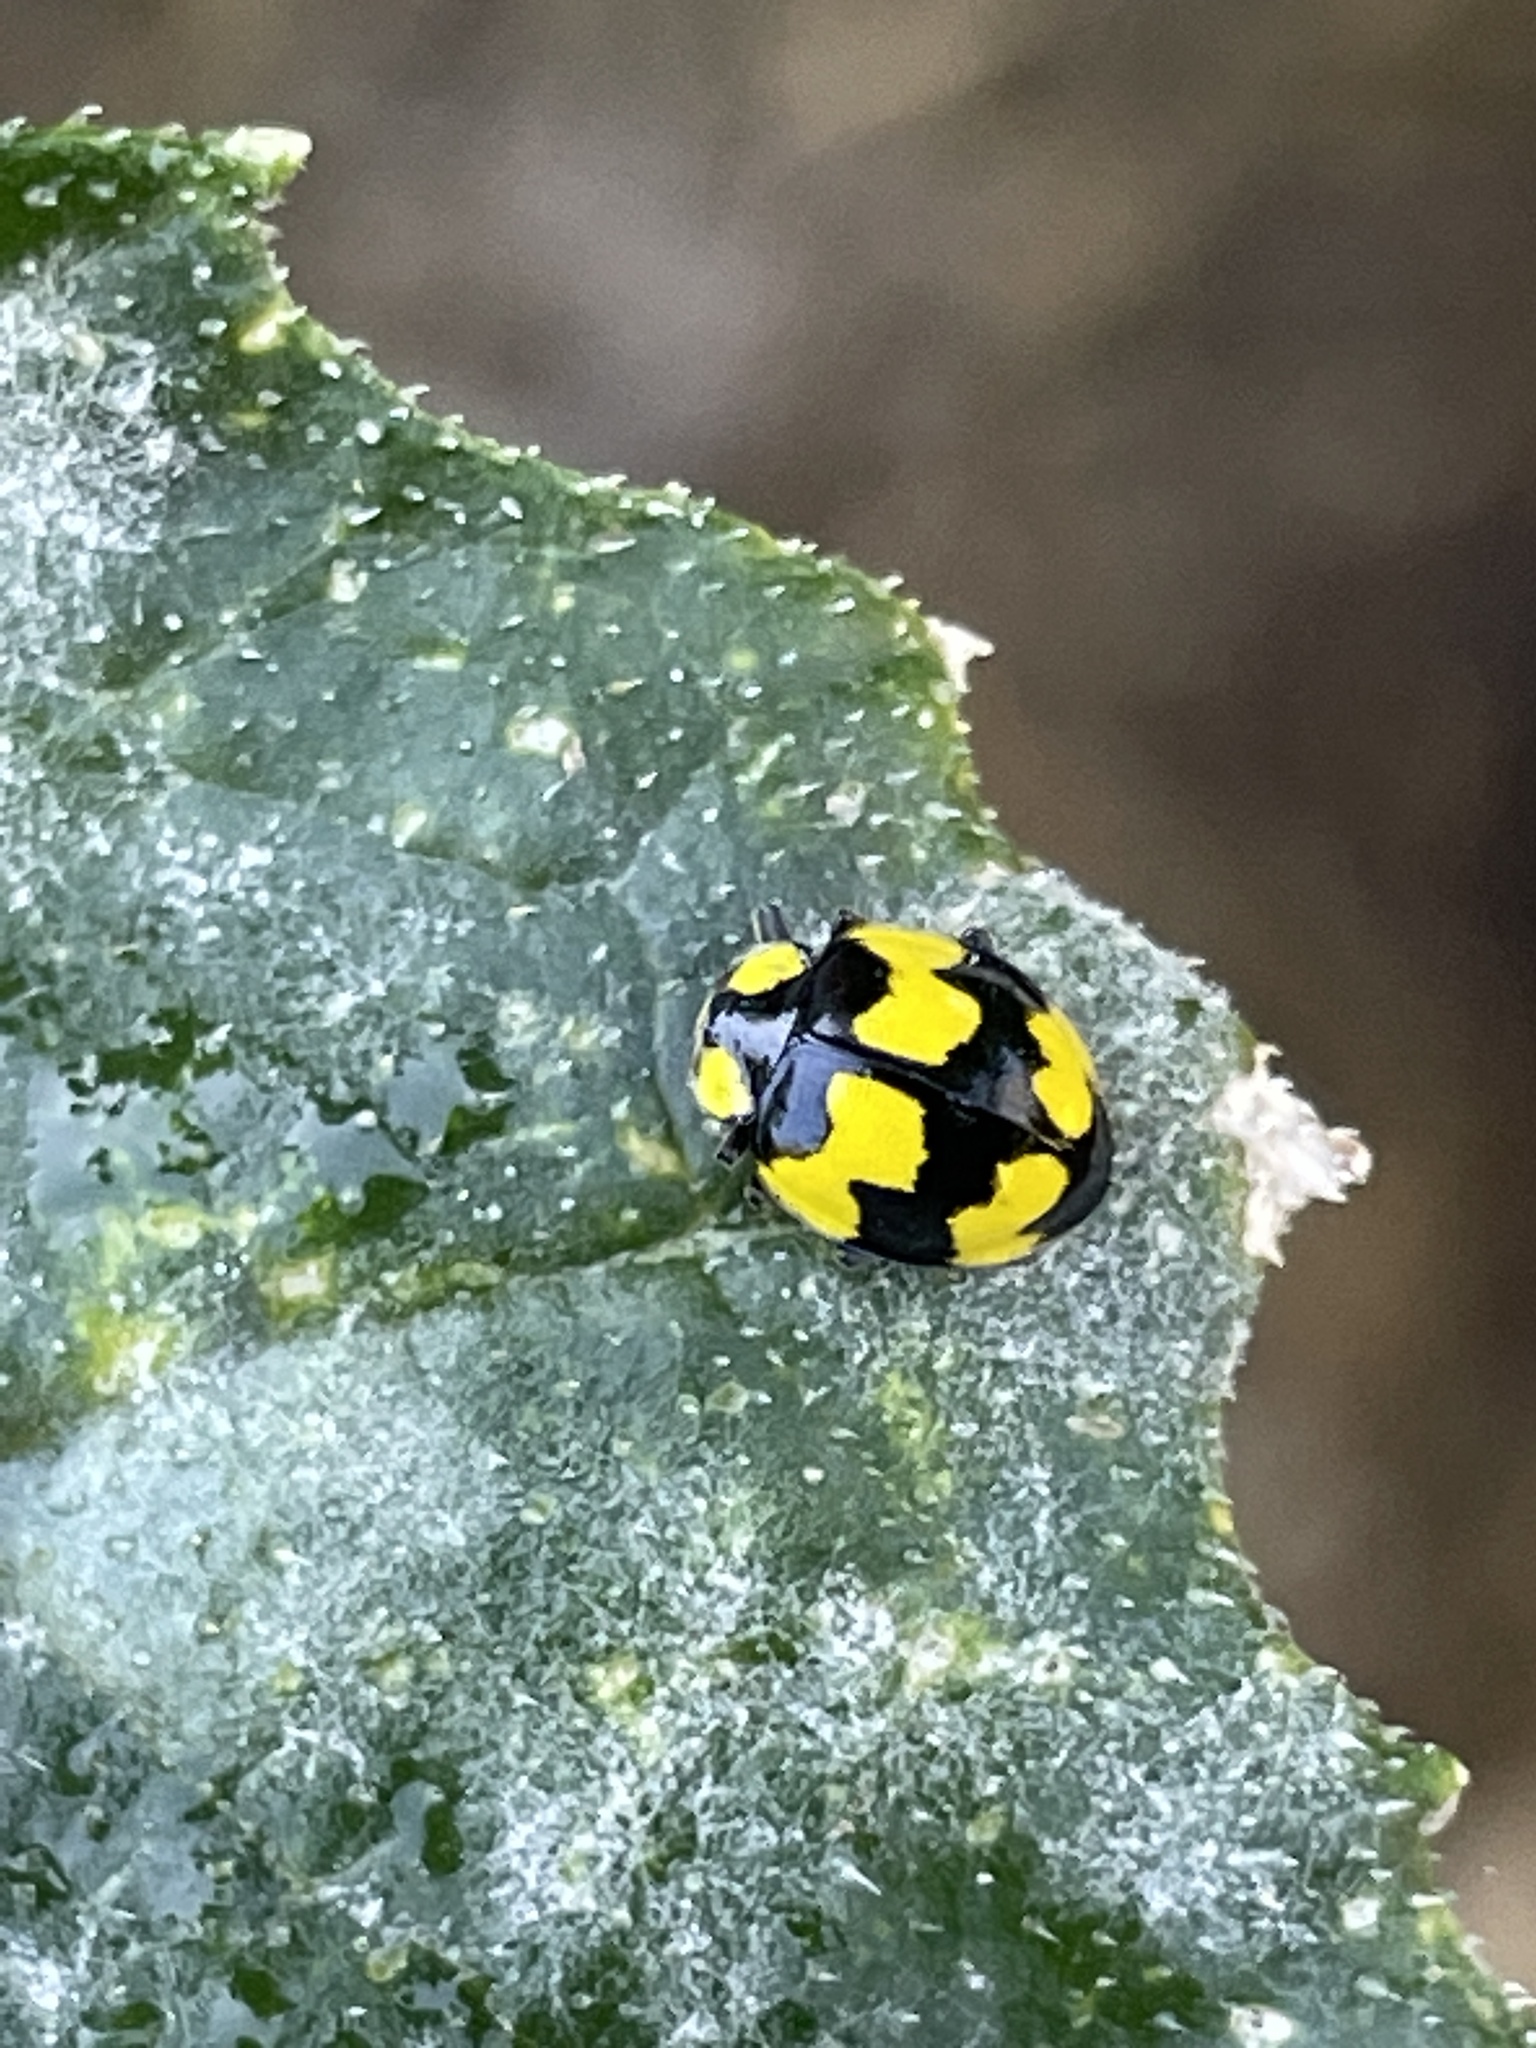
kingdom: Animalia
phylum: Arthropoda
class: Insecta
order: Coleoptera
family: Coccinellidae
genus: Illeis
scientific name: Illeis galbula
